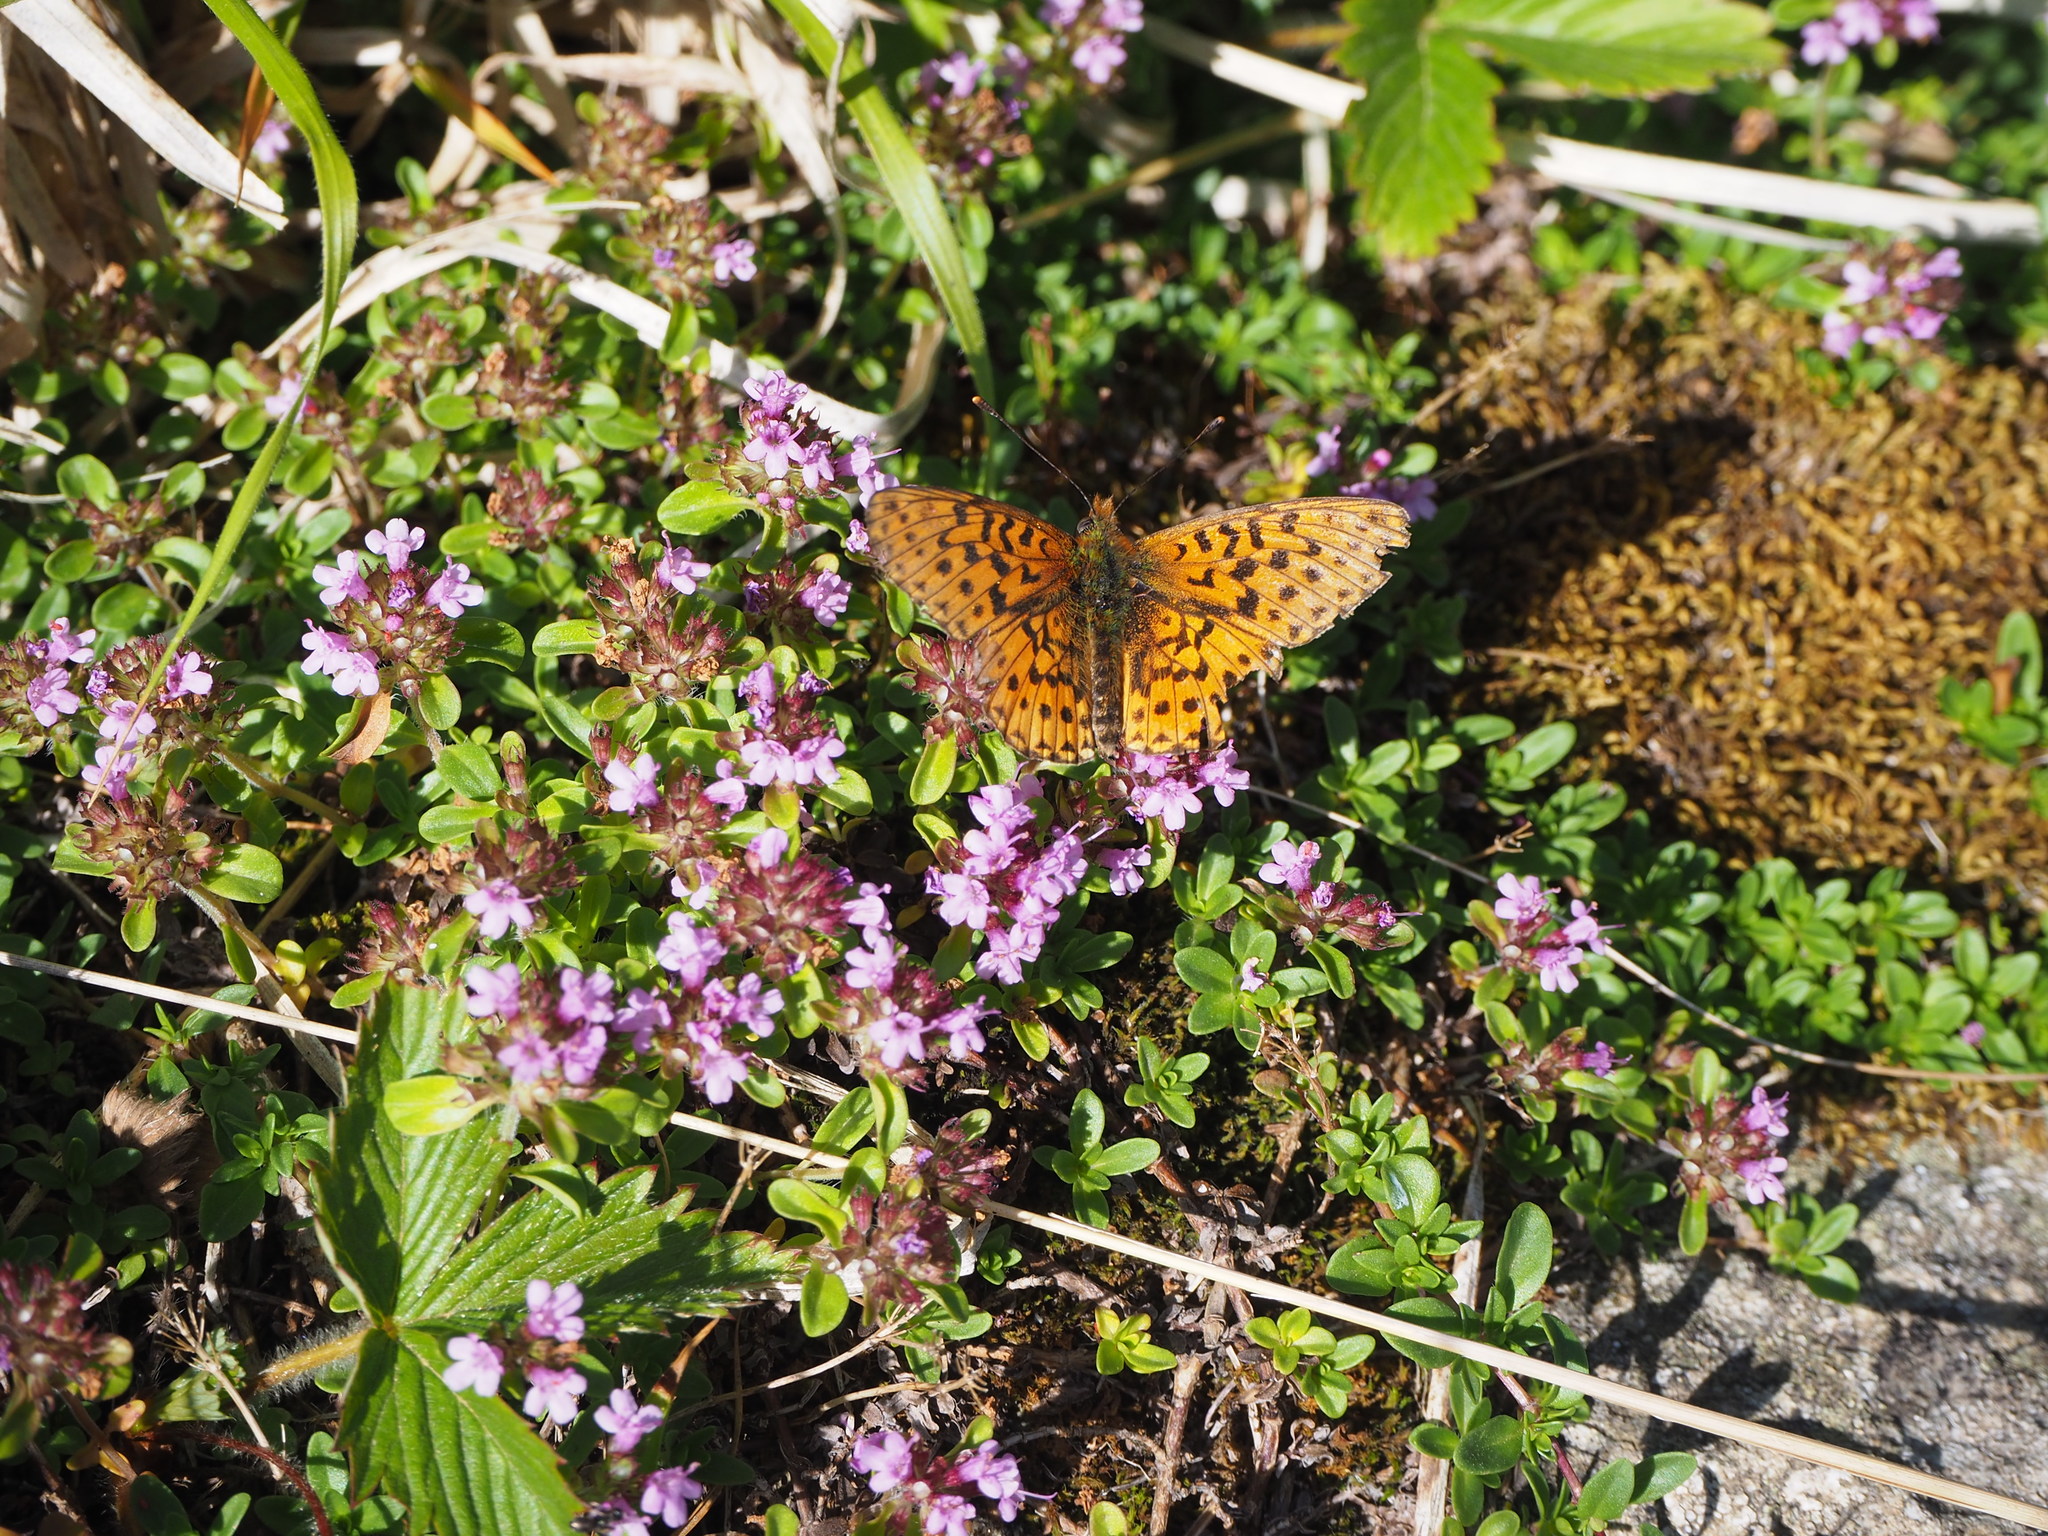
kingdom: Animalia
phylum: Arthropoda
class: Insecta
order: Lepidoptera
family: Nymphalidae
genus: Clossiana
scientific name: Clossiana euphrosyne
